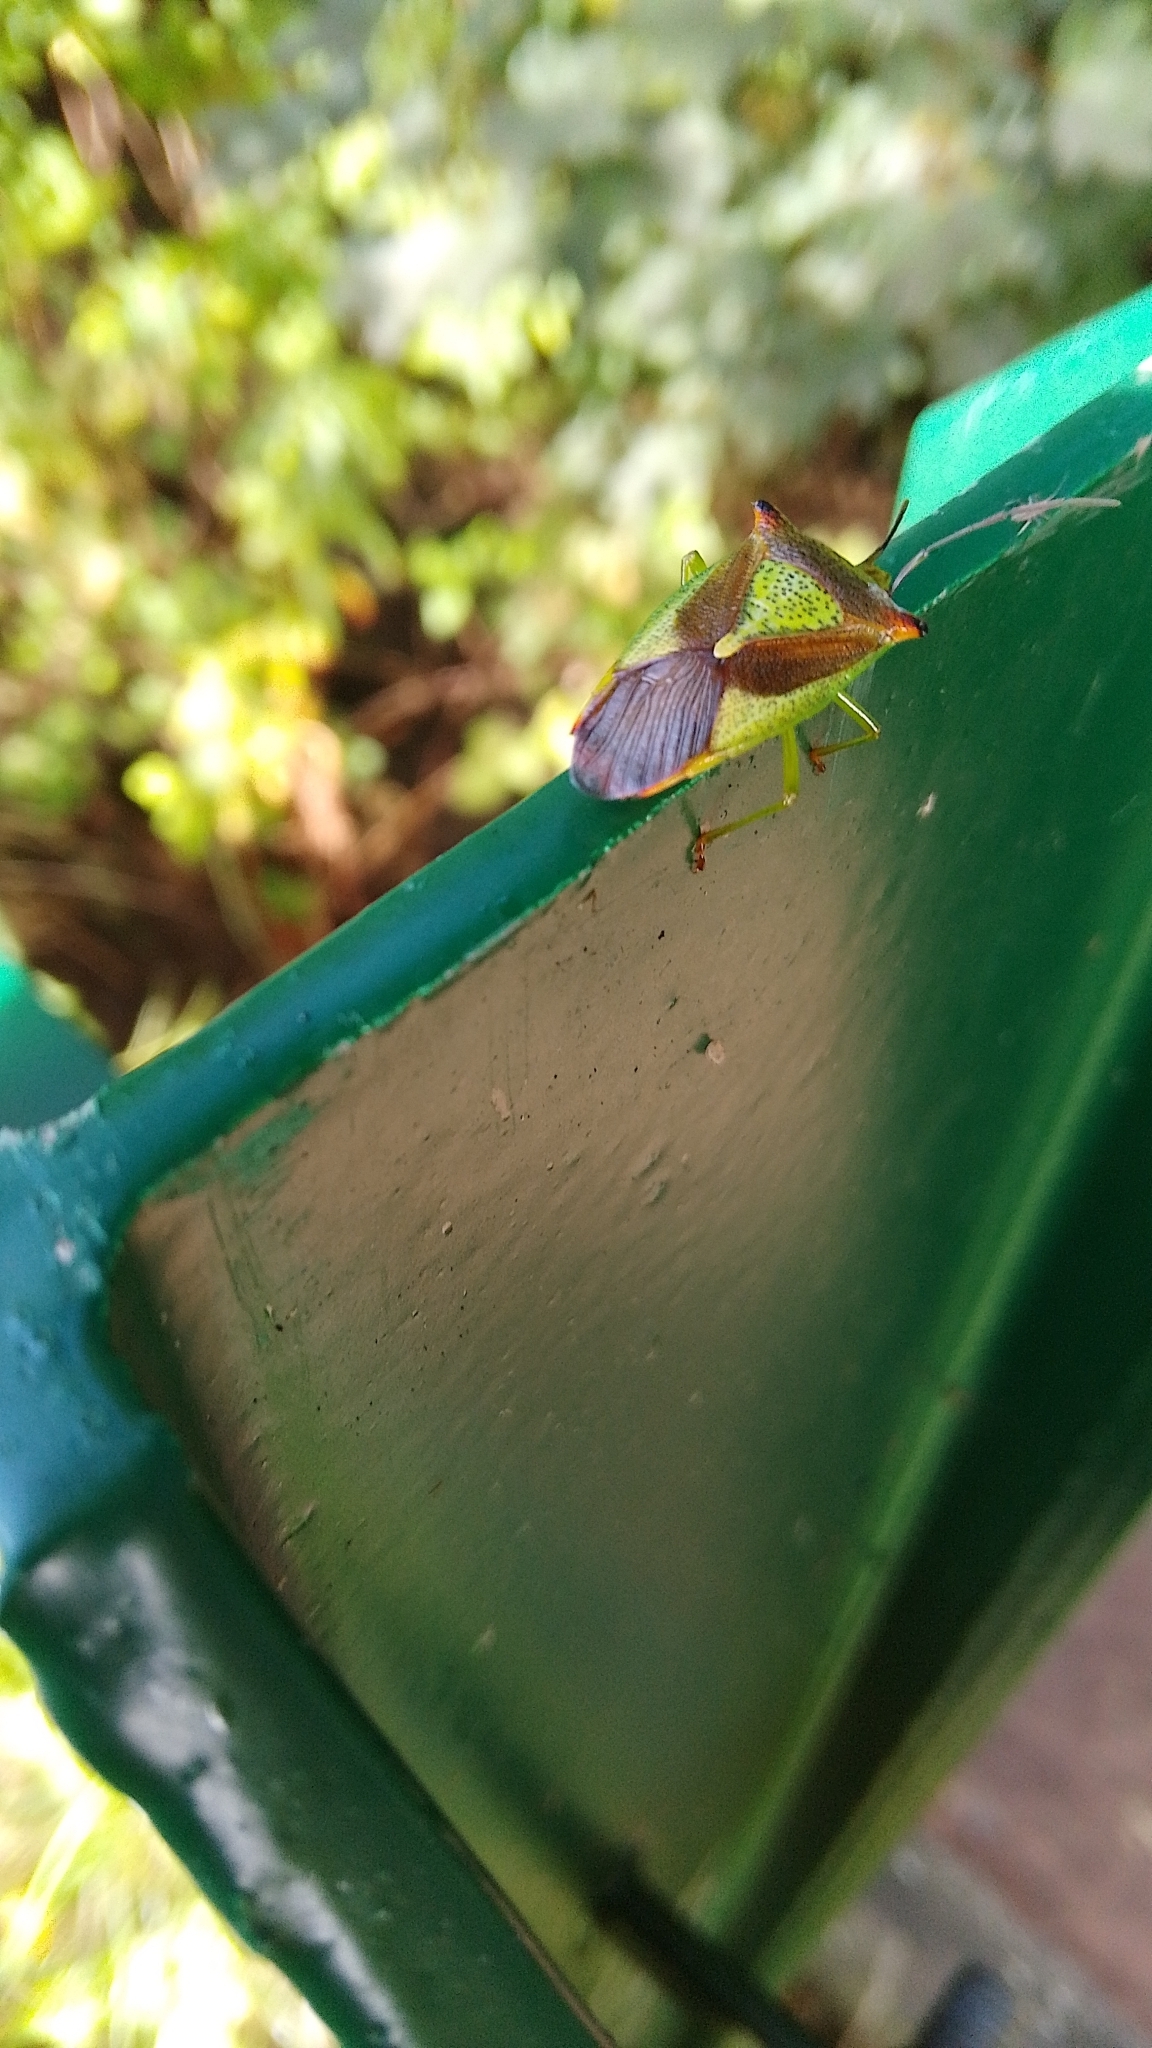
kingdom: Animalia
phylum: Arthropoda
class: Insecta
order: Hemiptera
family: Acanthosomatidae
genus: Acanthosoma
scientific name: Acanthosoma haemorrhoidale
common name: Hawthorn shieldbug
